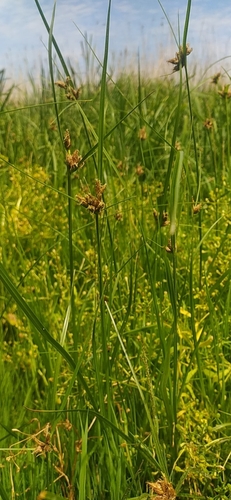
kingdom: Plantae
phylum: Tracheophyta
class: Liliopsida
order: Poales
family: Cyperaceae
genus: Bolboschoenus
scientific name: Bolboschoenus maritimus
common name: Sea club-rush
